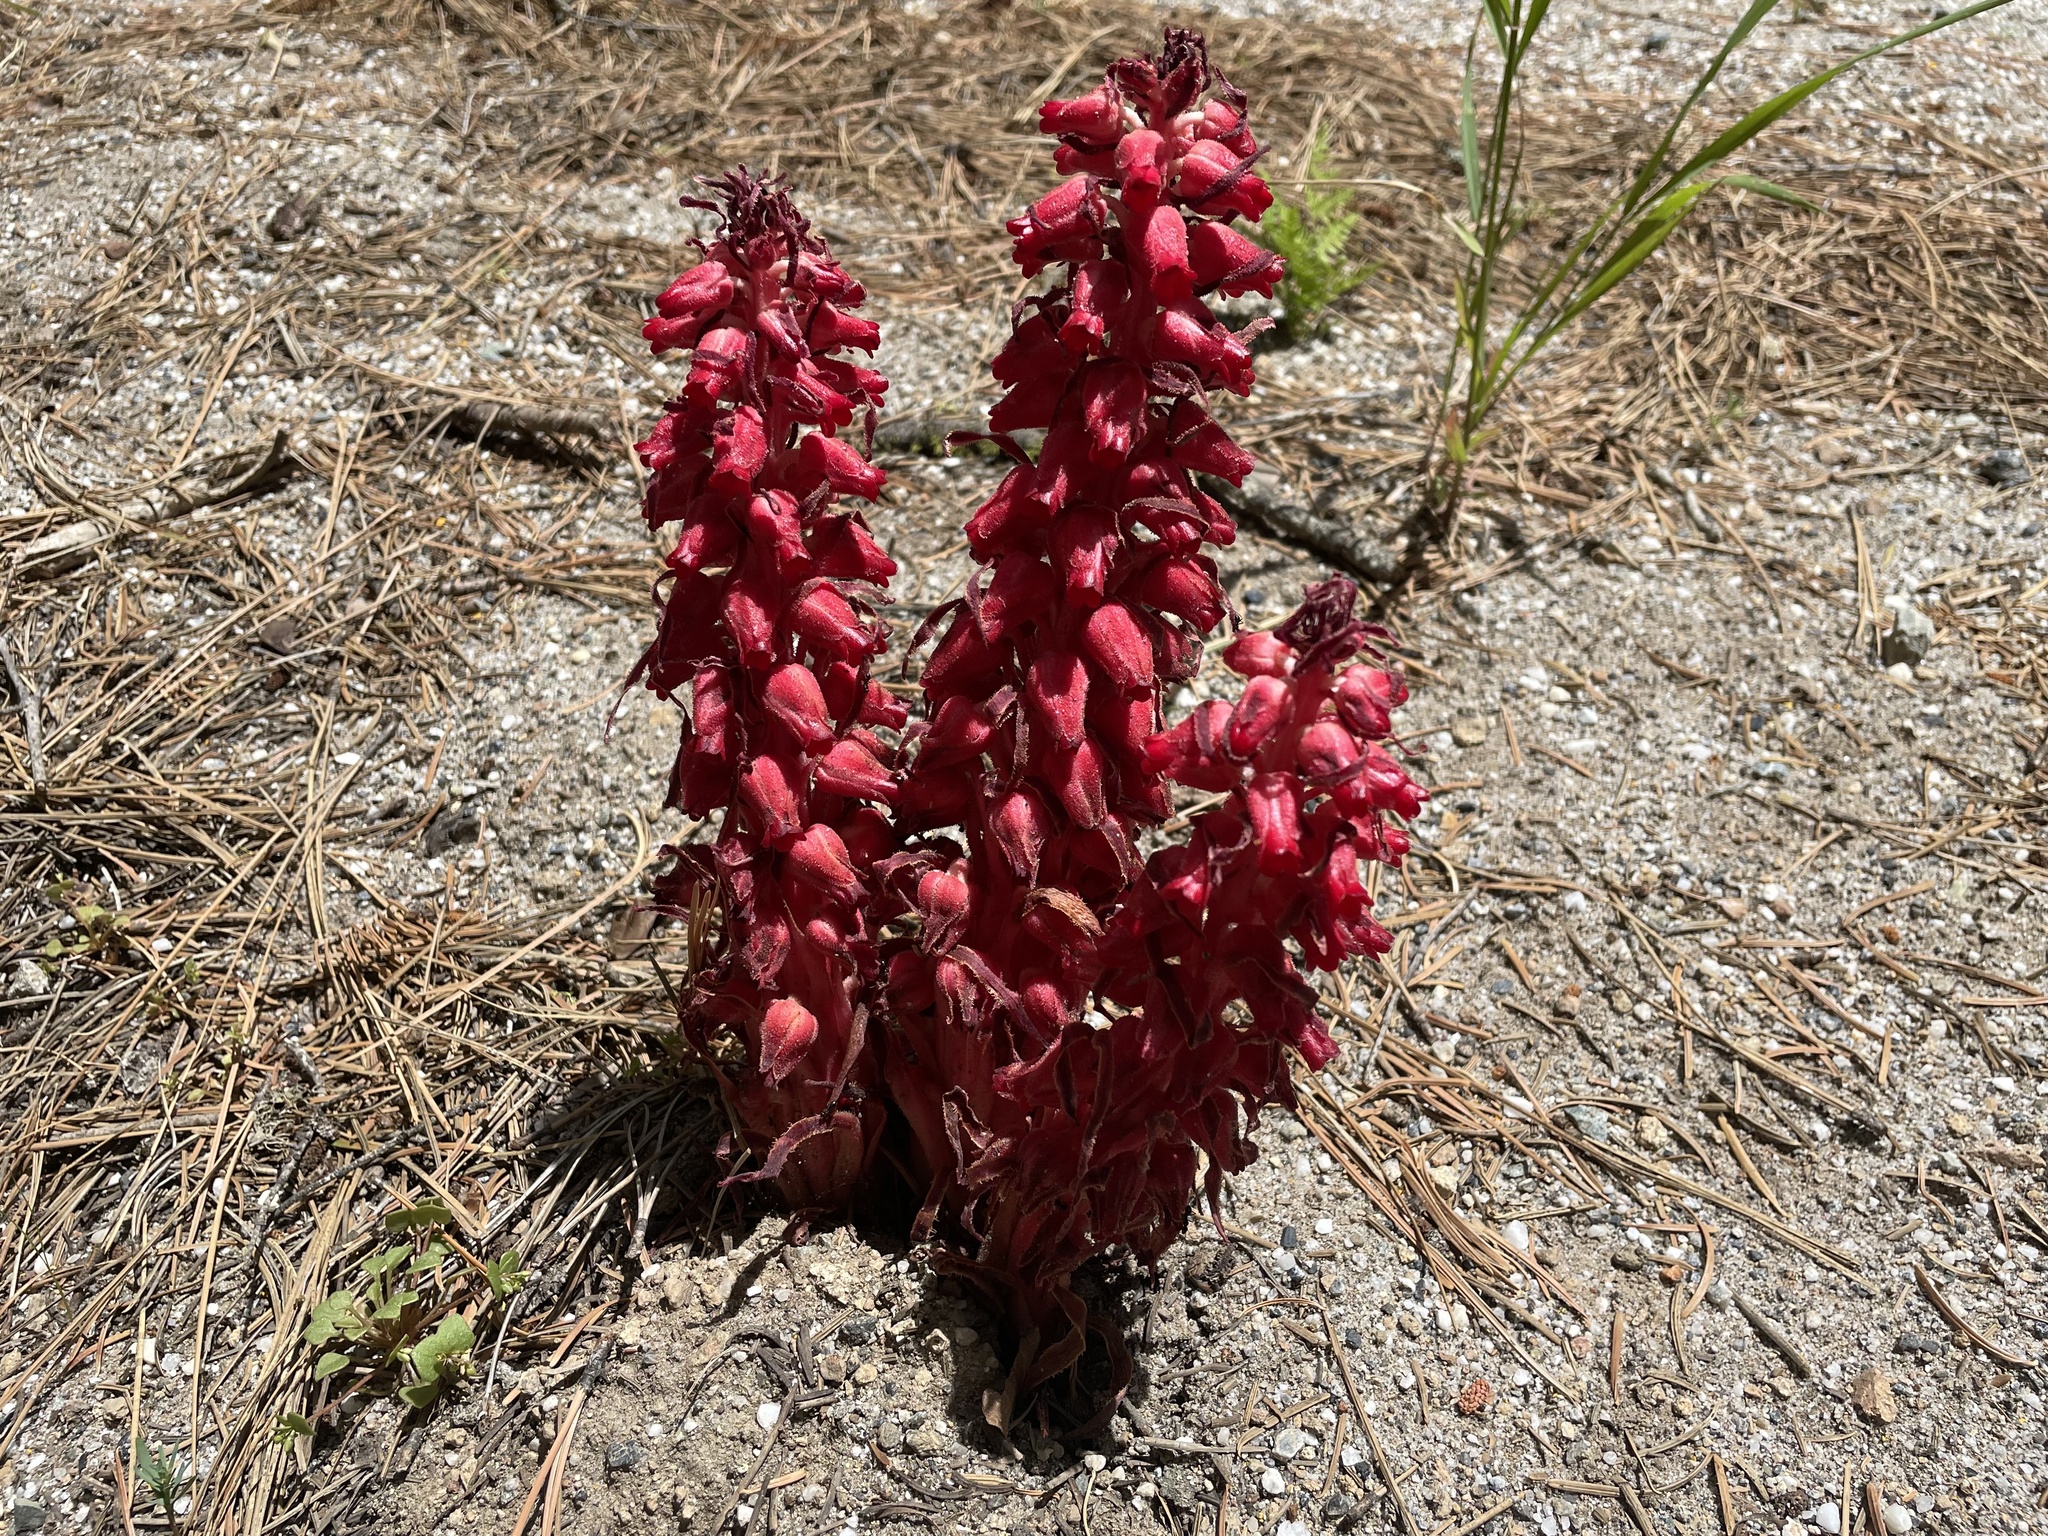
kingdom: Plantae
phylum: Tracheophyta
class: Magnoliopsida
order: Ericales
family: Ericaceae
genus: Sarcodes
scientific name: Sarcodes sanguinea
